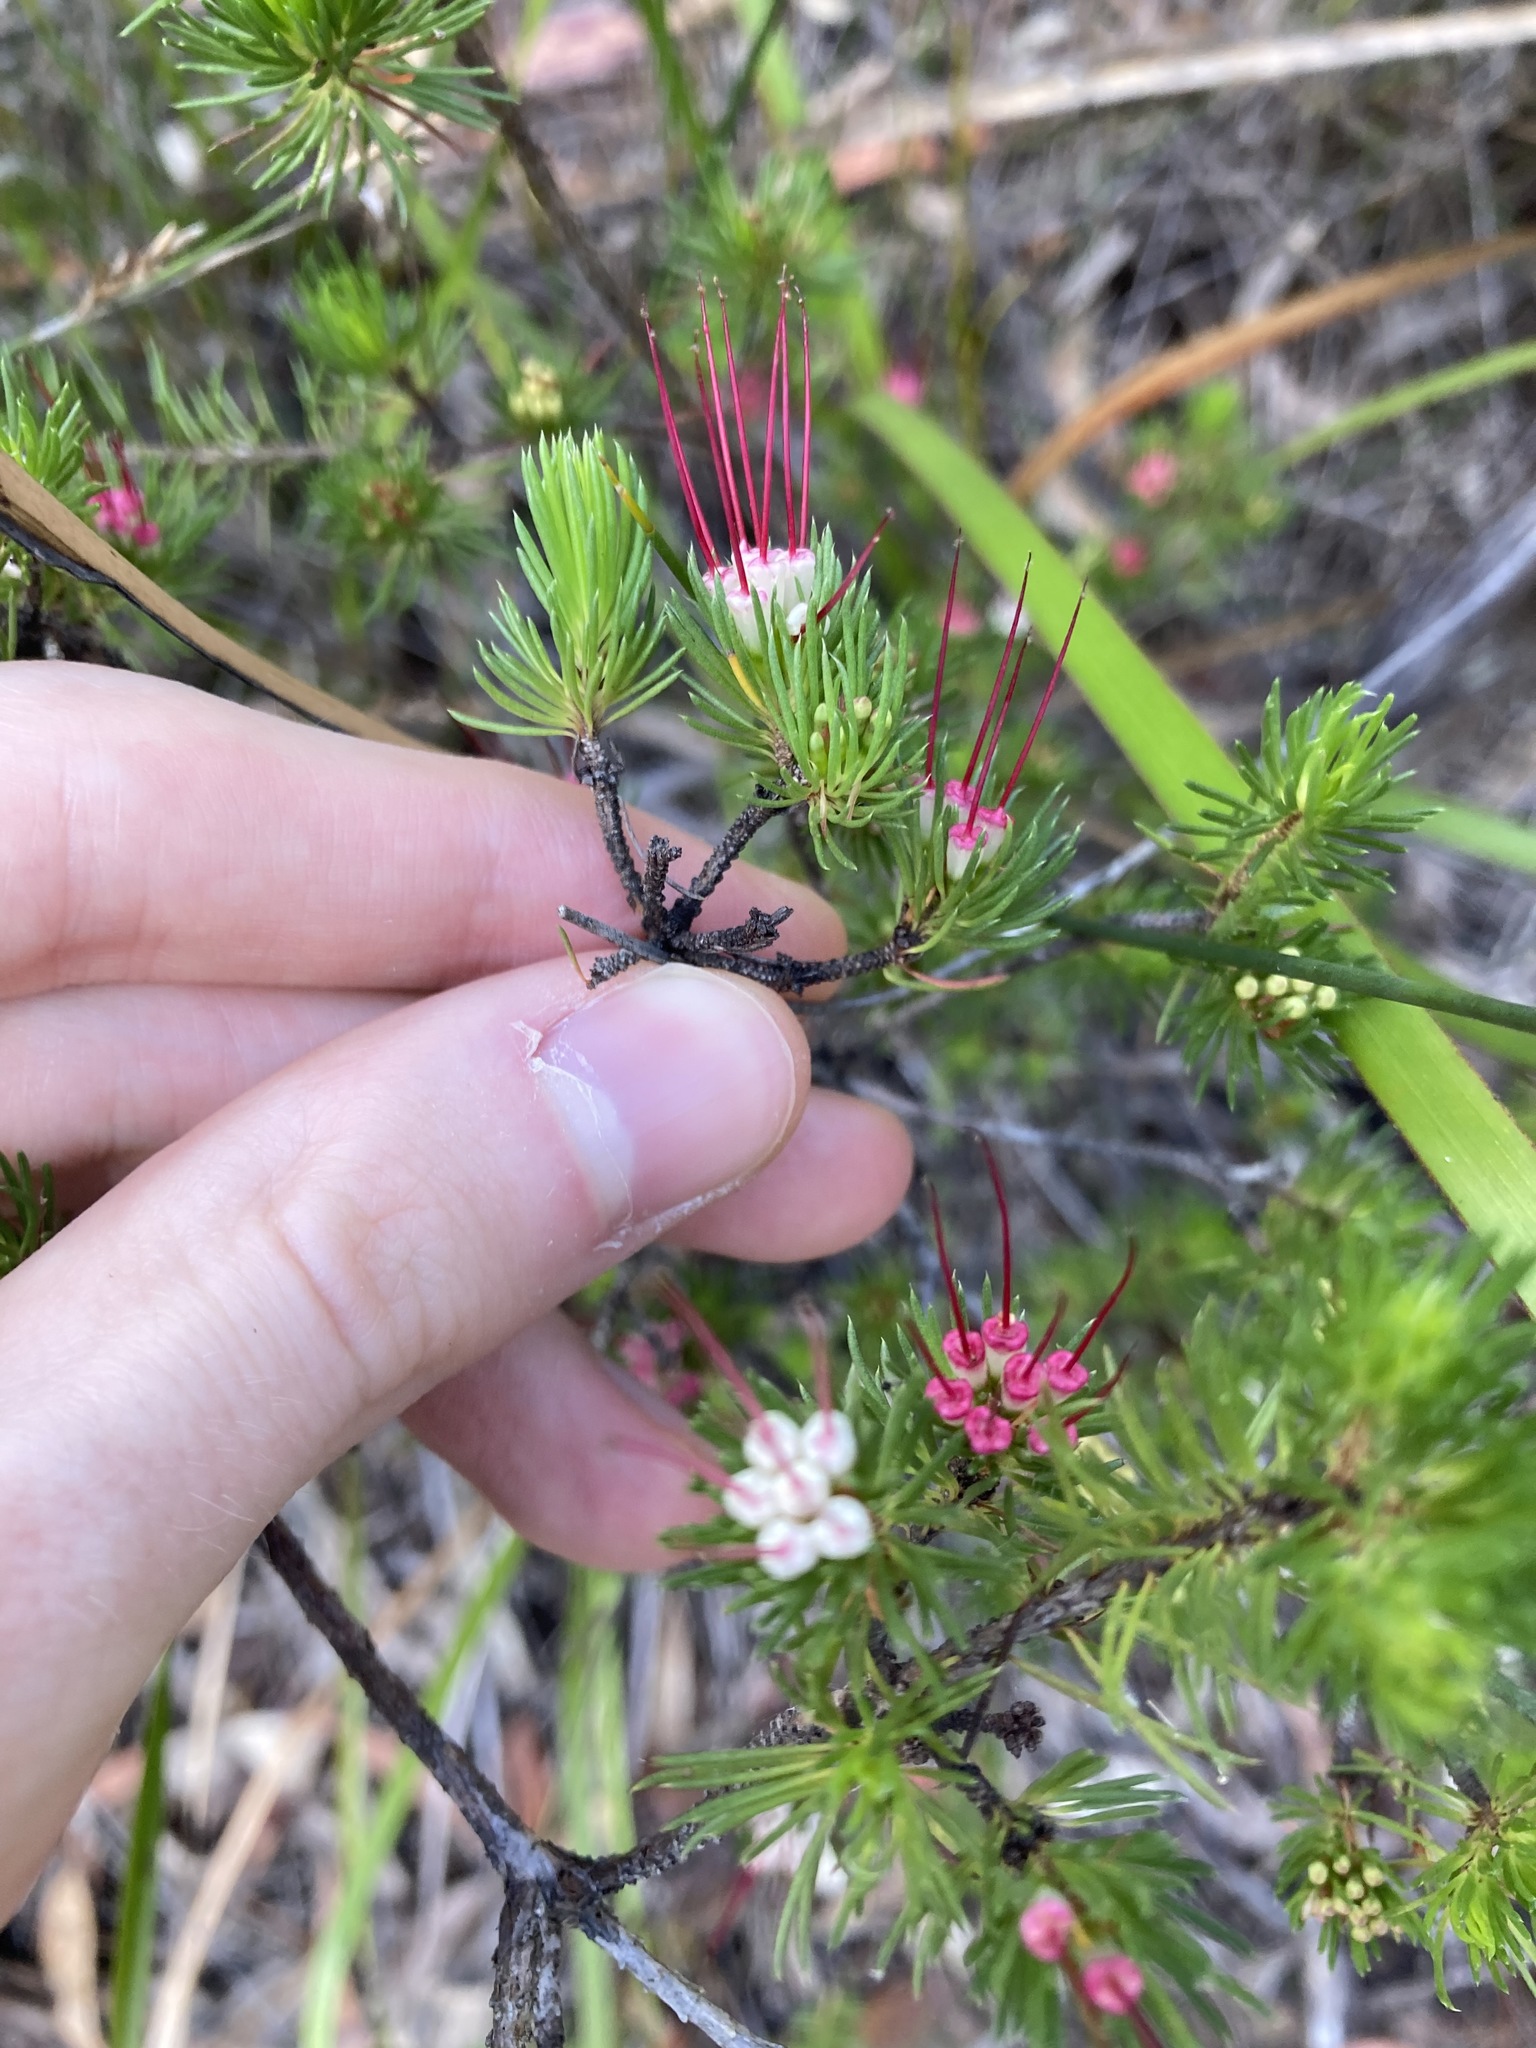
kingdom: Plantae
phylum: Tracheophyta
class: Magnoliopsida
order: Myrtales
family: Myrtaceae
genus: Darwinia
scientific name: Darwinia fascicularis
